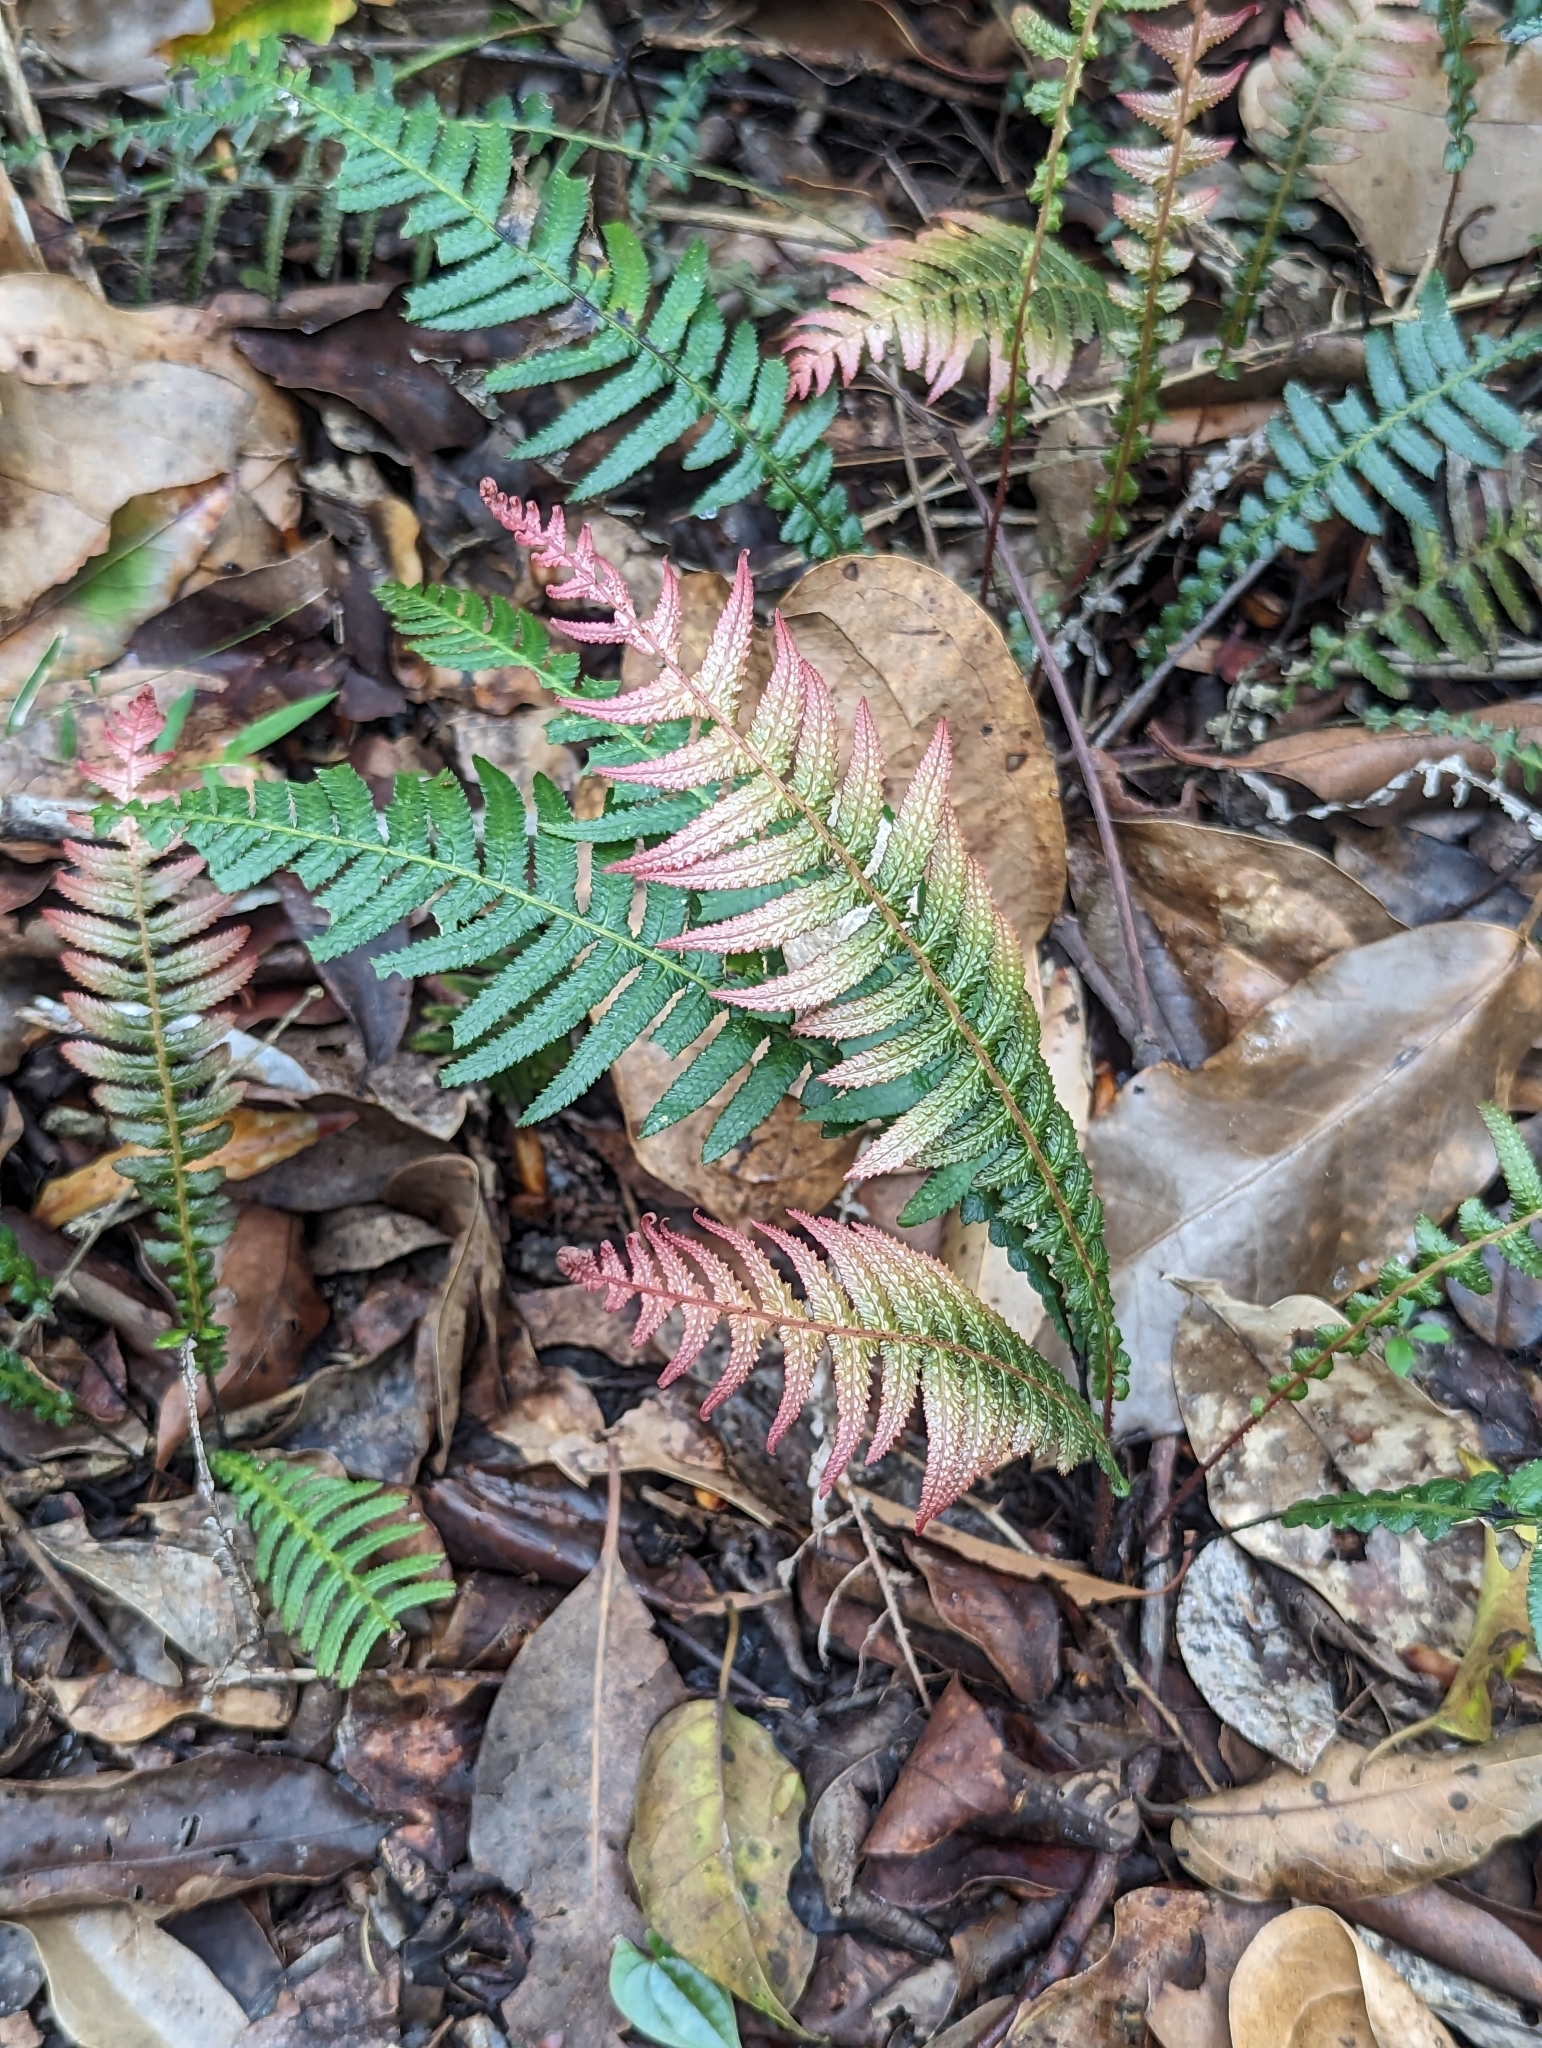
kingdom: Plantae
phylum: Tracheophyta
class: Polypodiopsida
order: Polypodiales
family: Blechnaceae
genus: Doodia
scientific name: Doodia aspera
